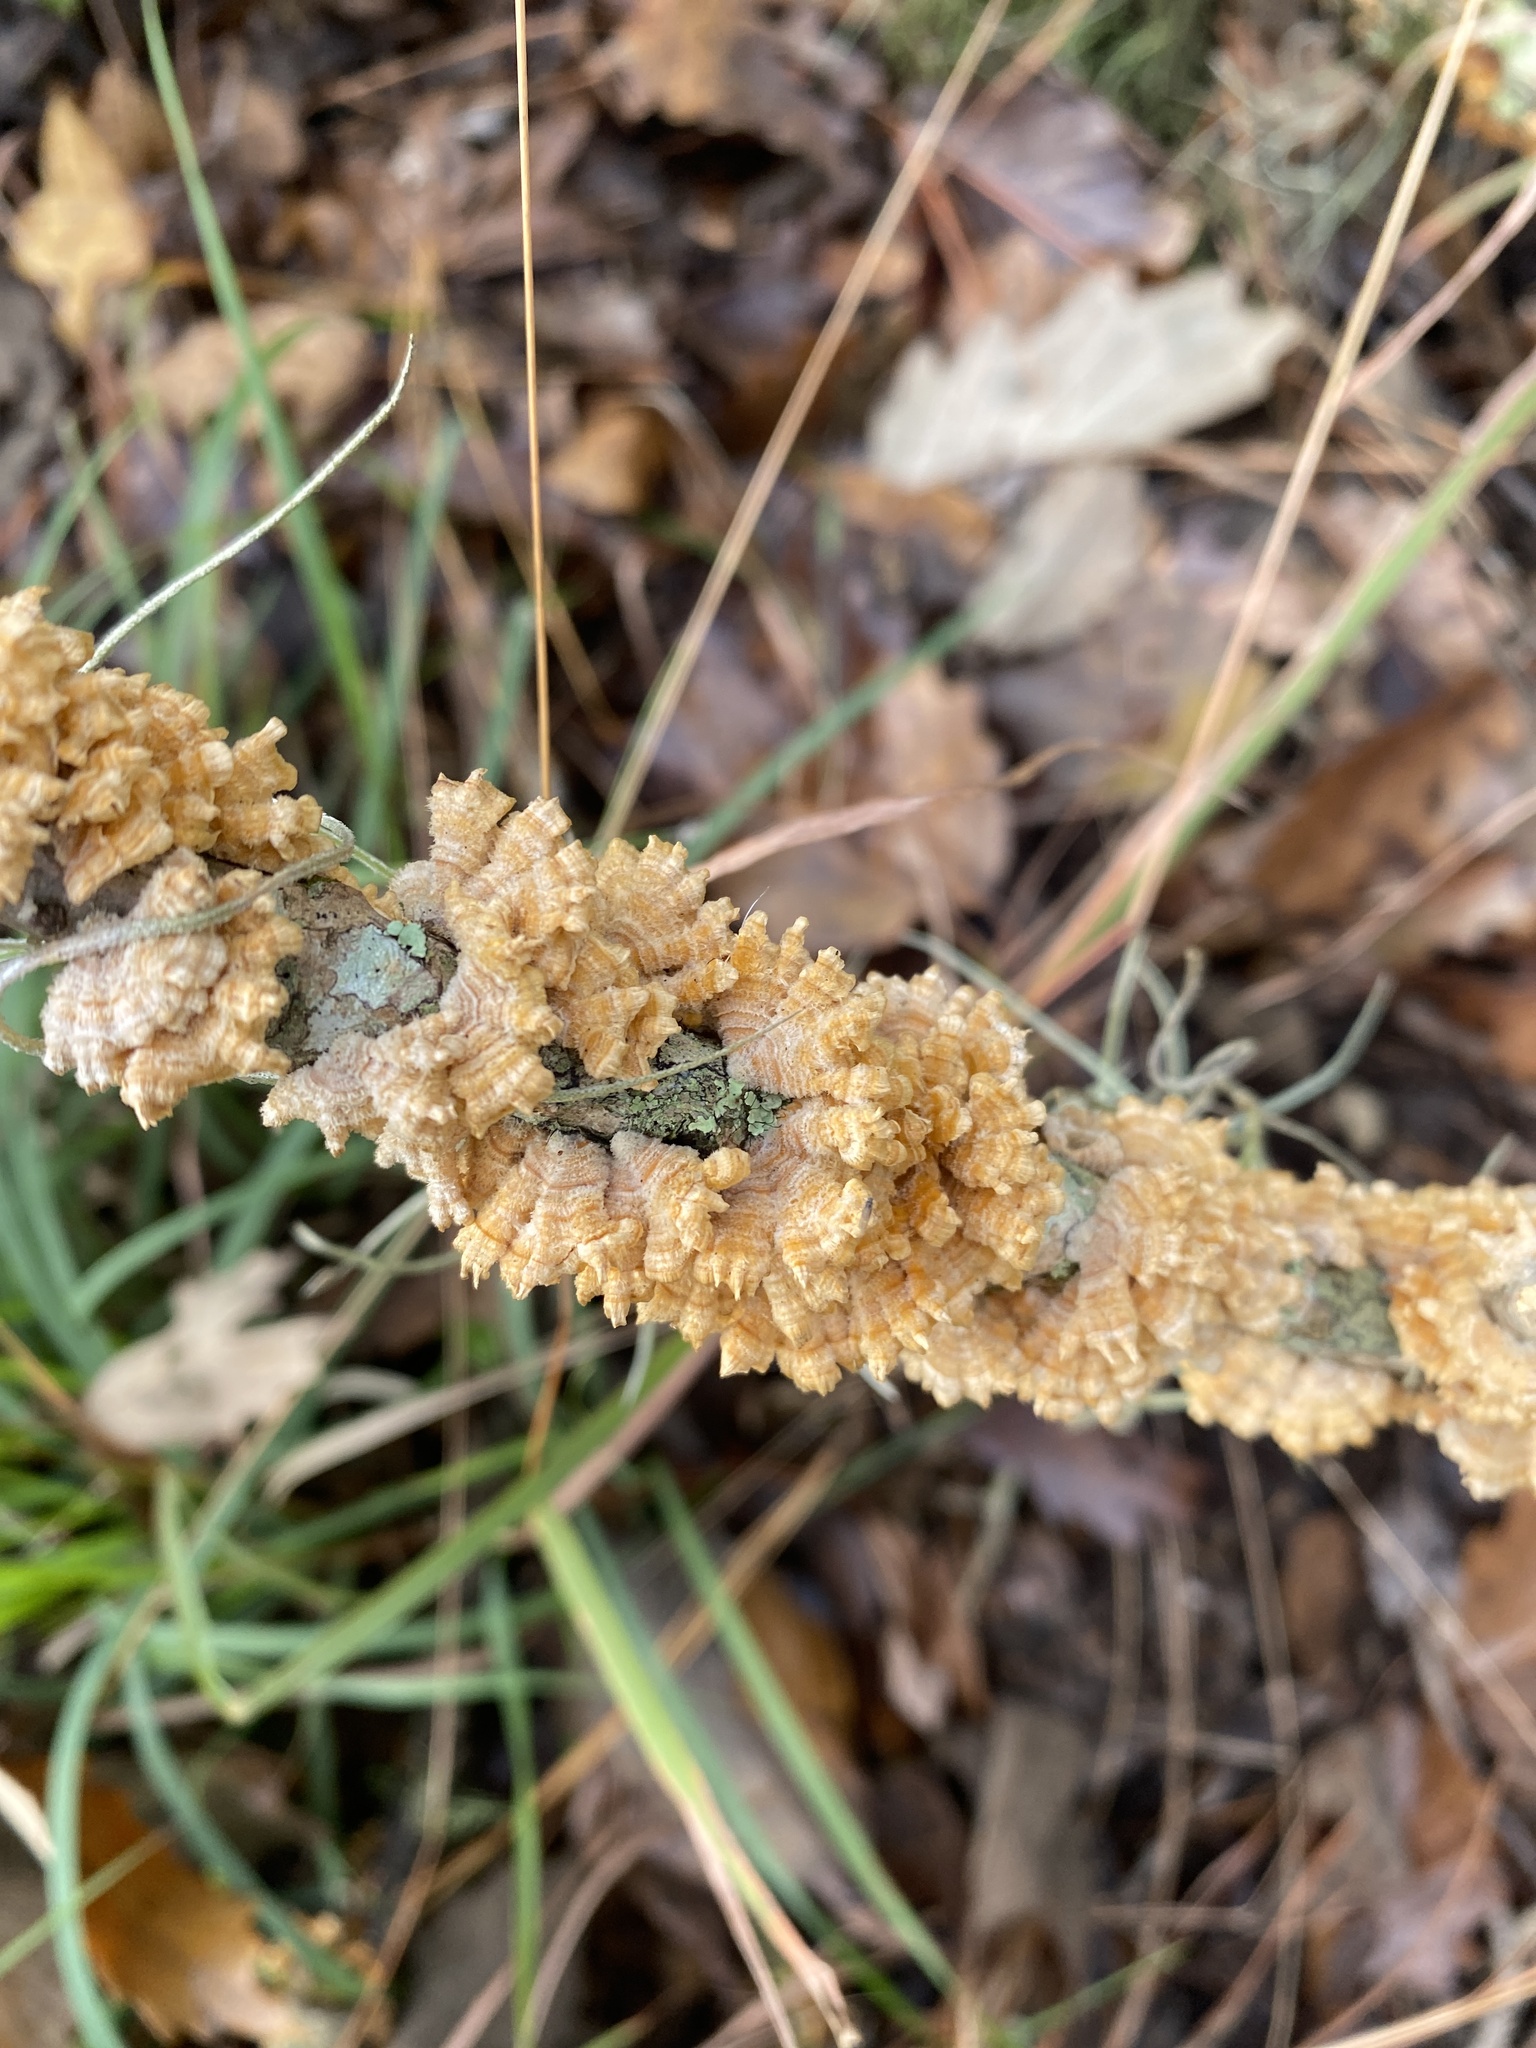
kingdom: Fungi
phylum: Basidiomycota
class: Agaricomycetes
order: Russulales
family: Stereaceae
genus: Stereum
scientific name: Stereum complicatum
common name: Crowded parchment
